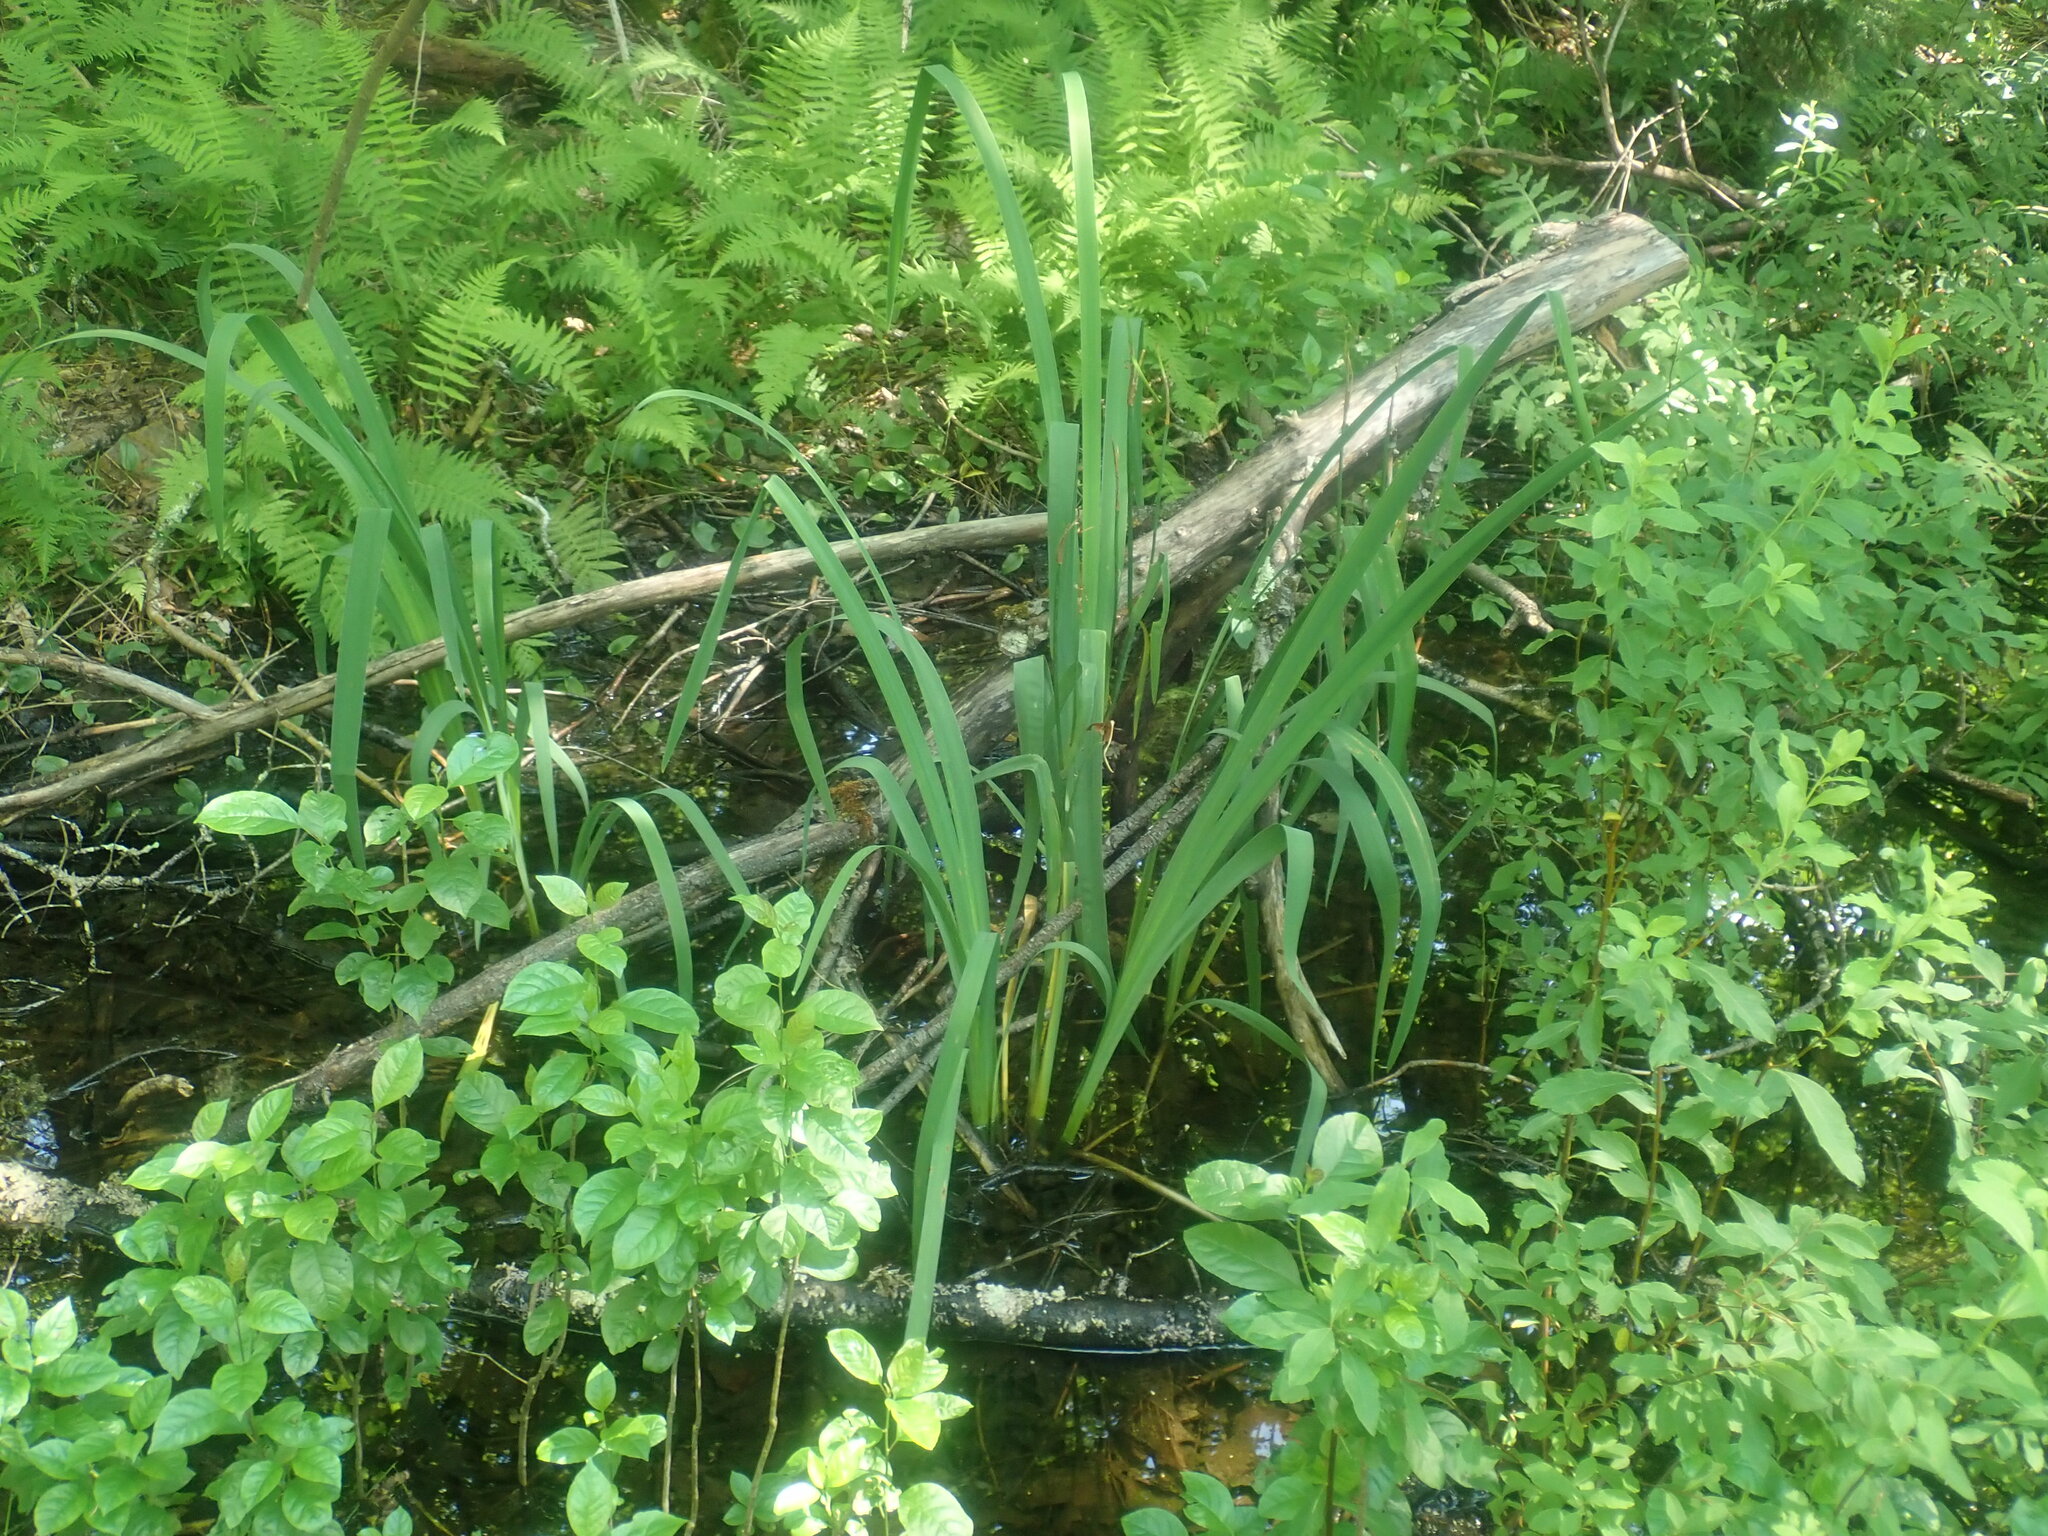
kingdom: Plantae
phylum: Tracheophyta
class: Liliopsida
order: Asparagales
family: Iridaceae
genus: Iris
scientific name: Iris
